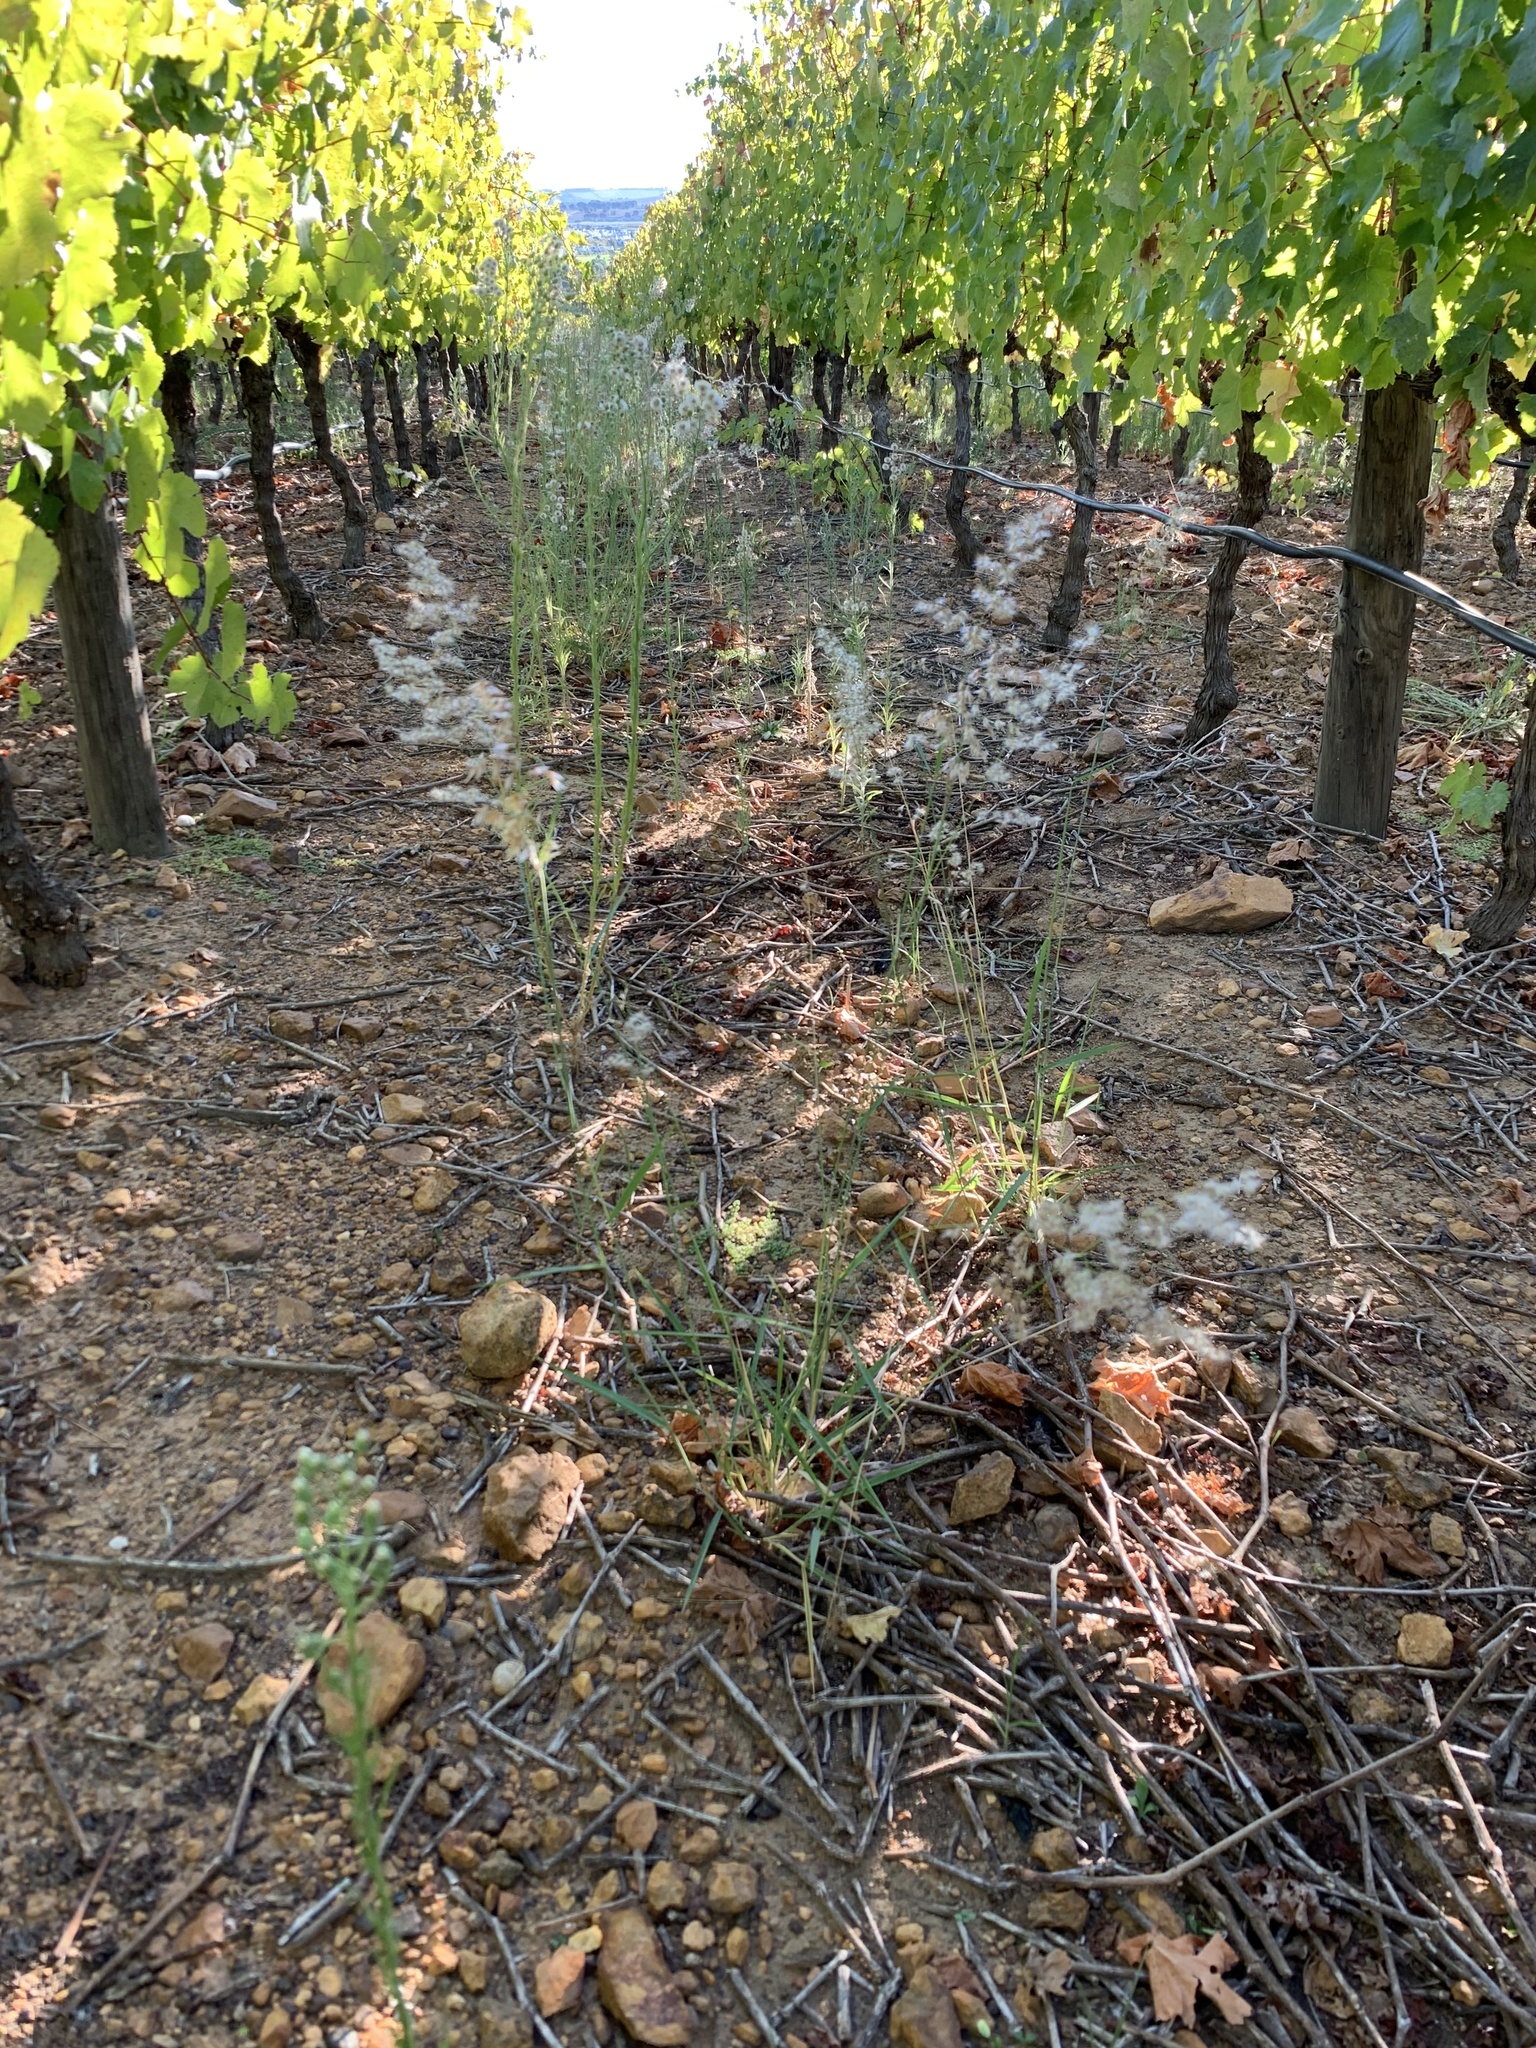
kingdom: Plantae
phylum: Tracheophyta
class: Liliopsida
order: Poales
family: Poaceae
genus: Melinis
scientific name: Melinis repens
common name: Rose natal grass
